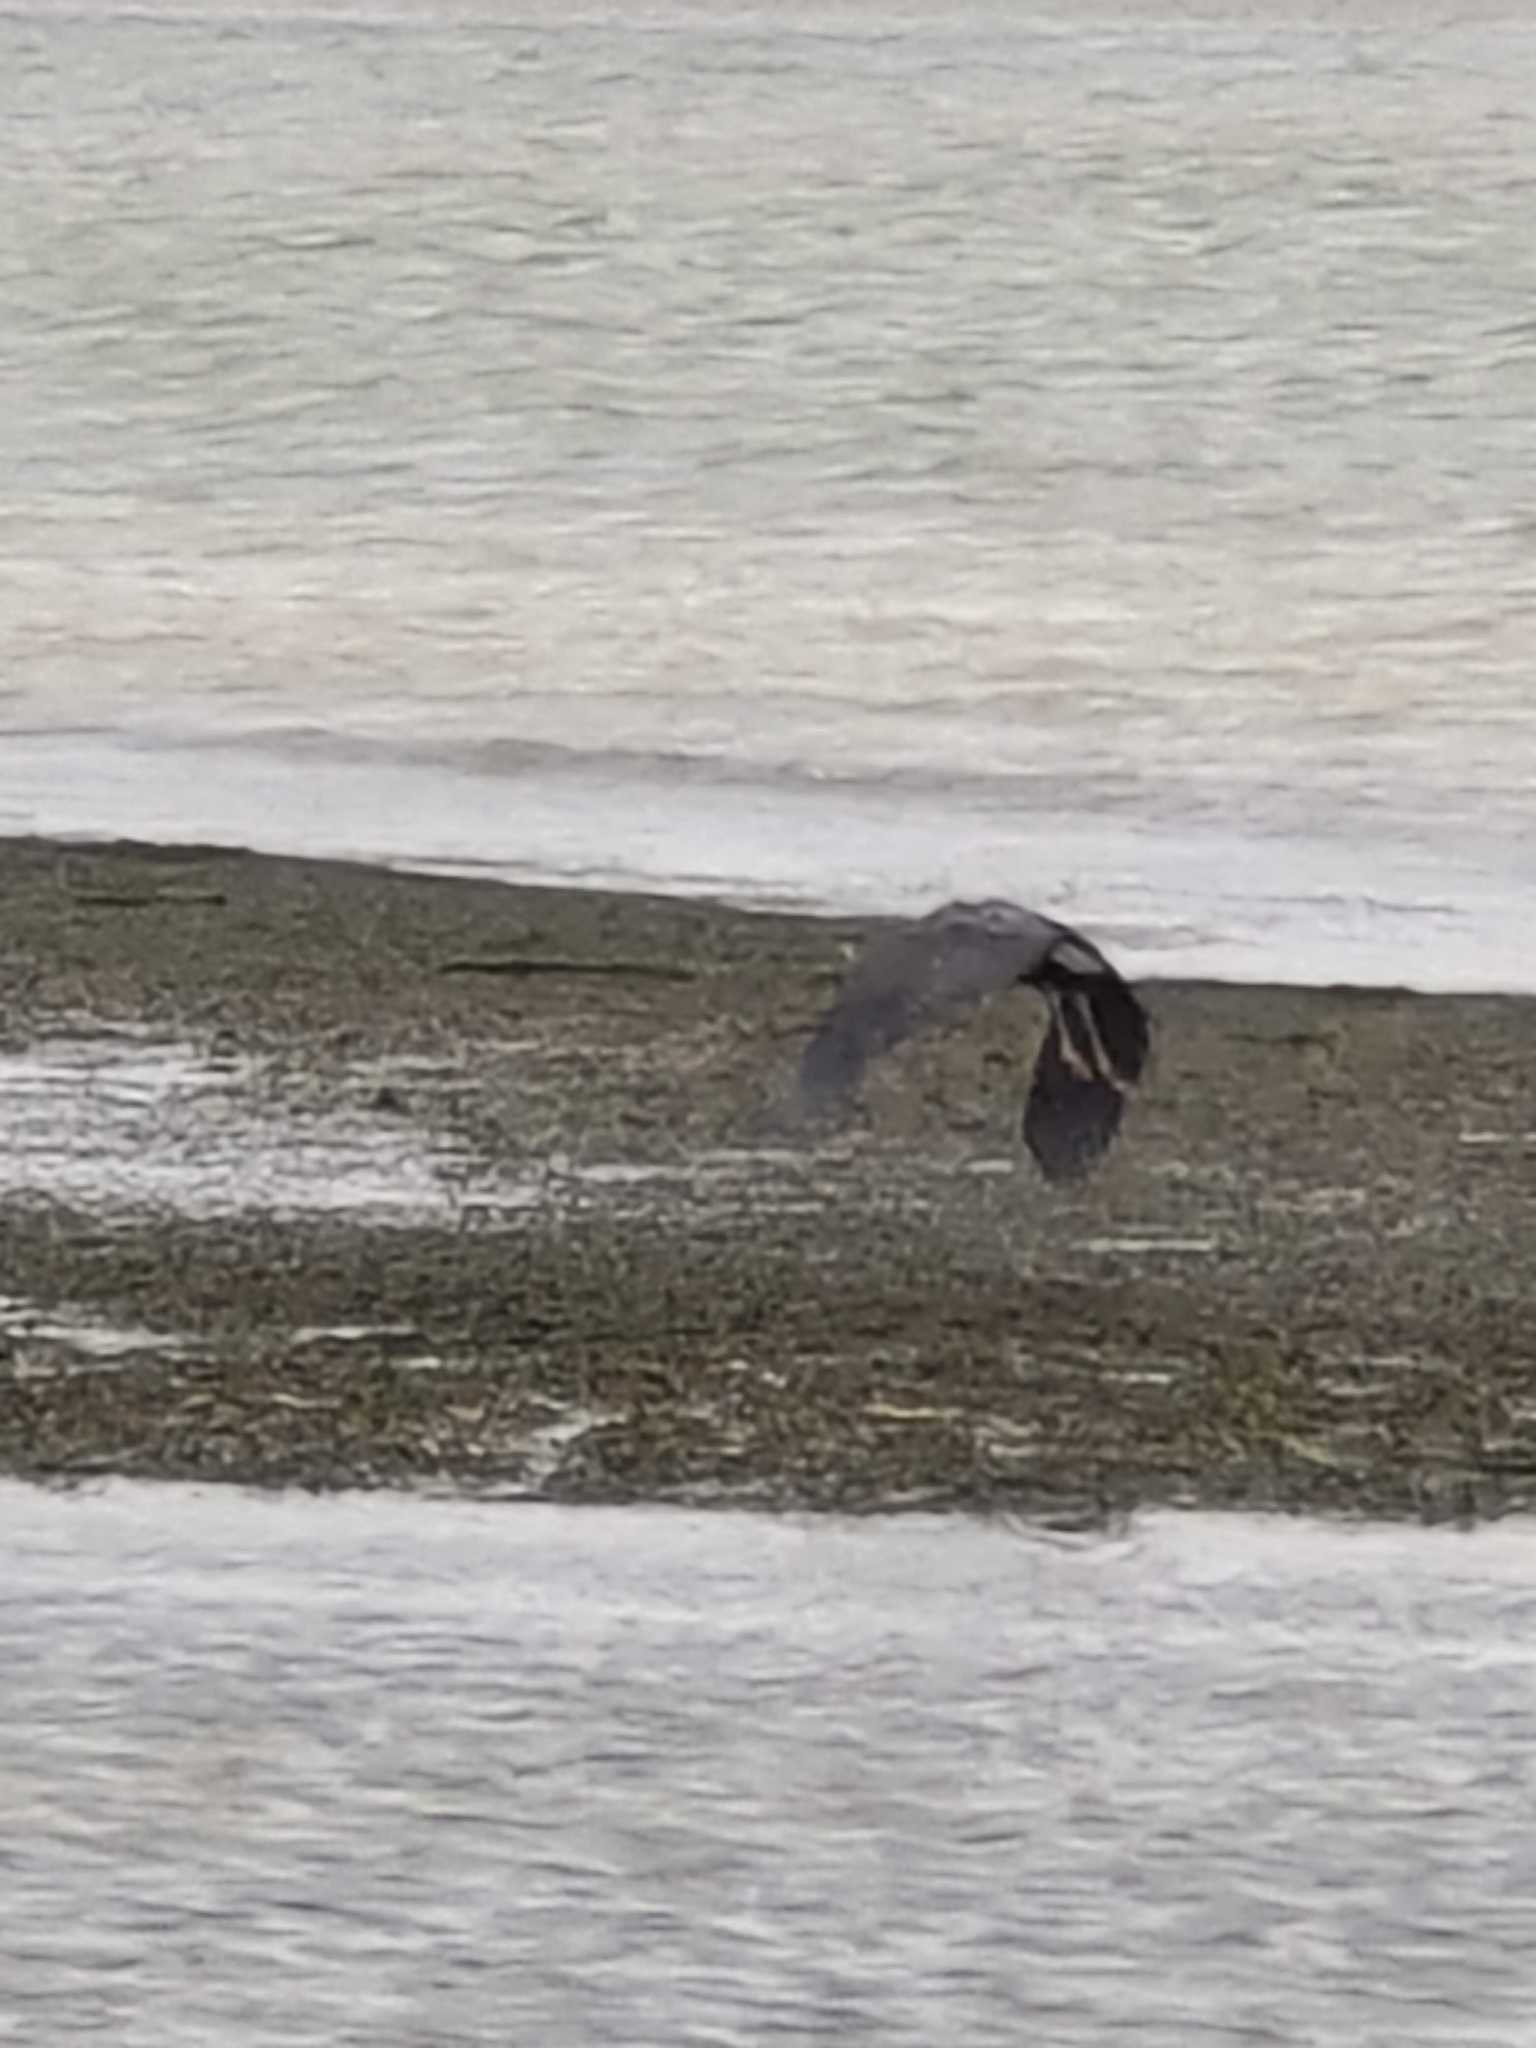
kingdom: Animalia
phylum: Chordata
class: Aves
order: Pelecaniformes
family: Ardeidae
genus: Ardea
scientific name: Ardea sumatrana
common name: Great-billed heron
